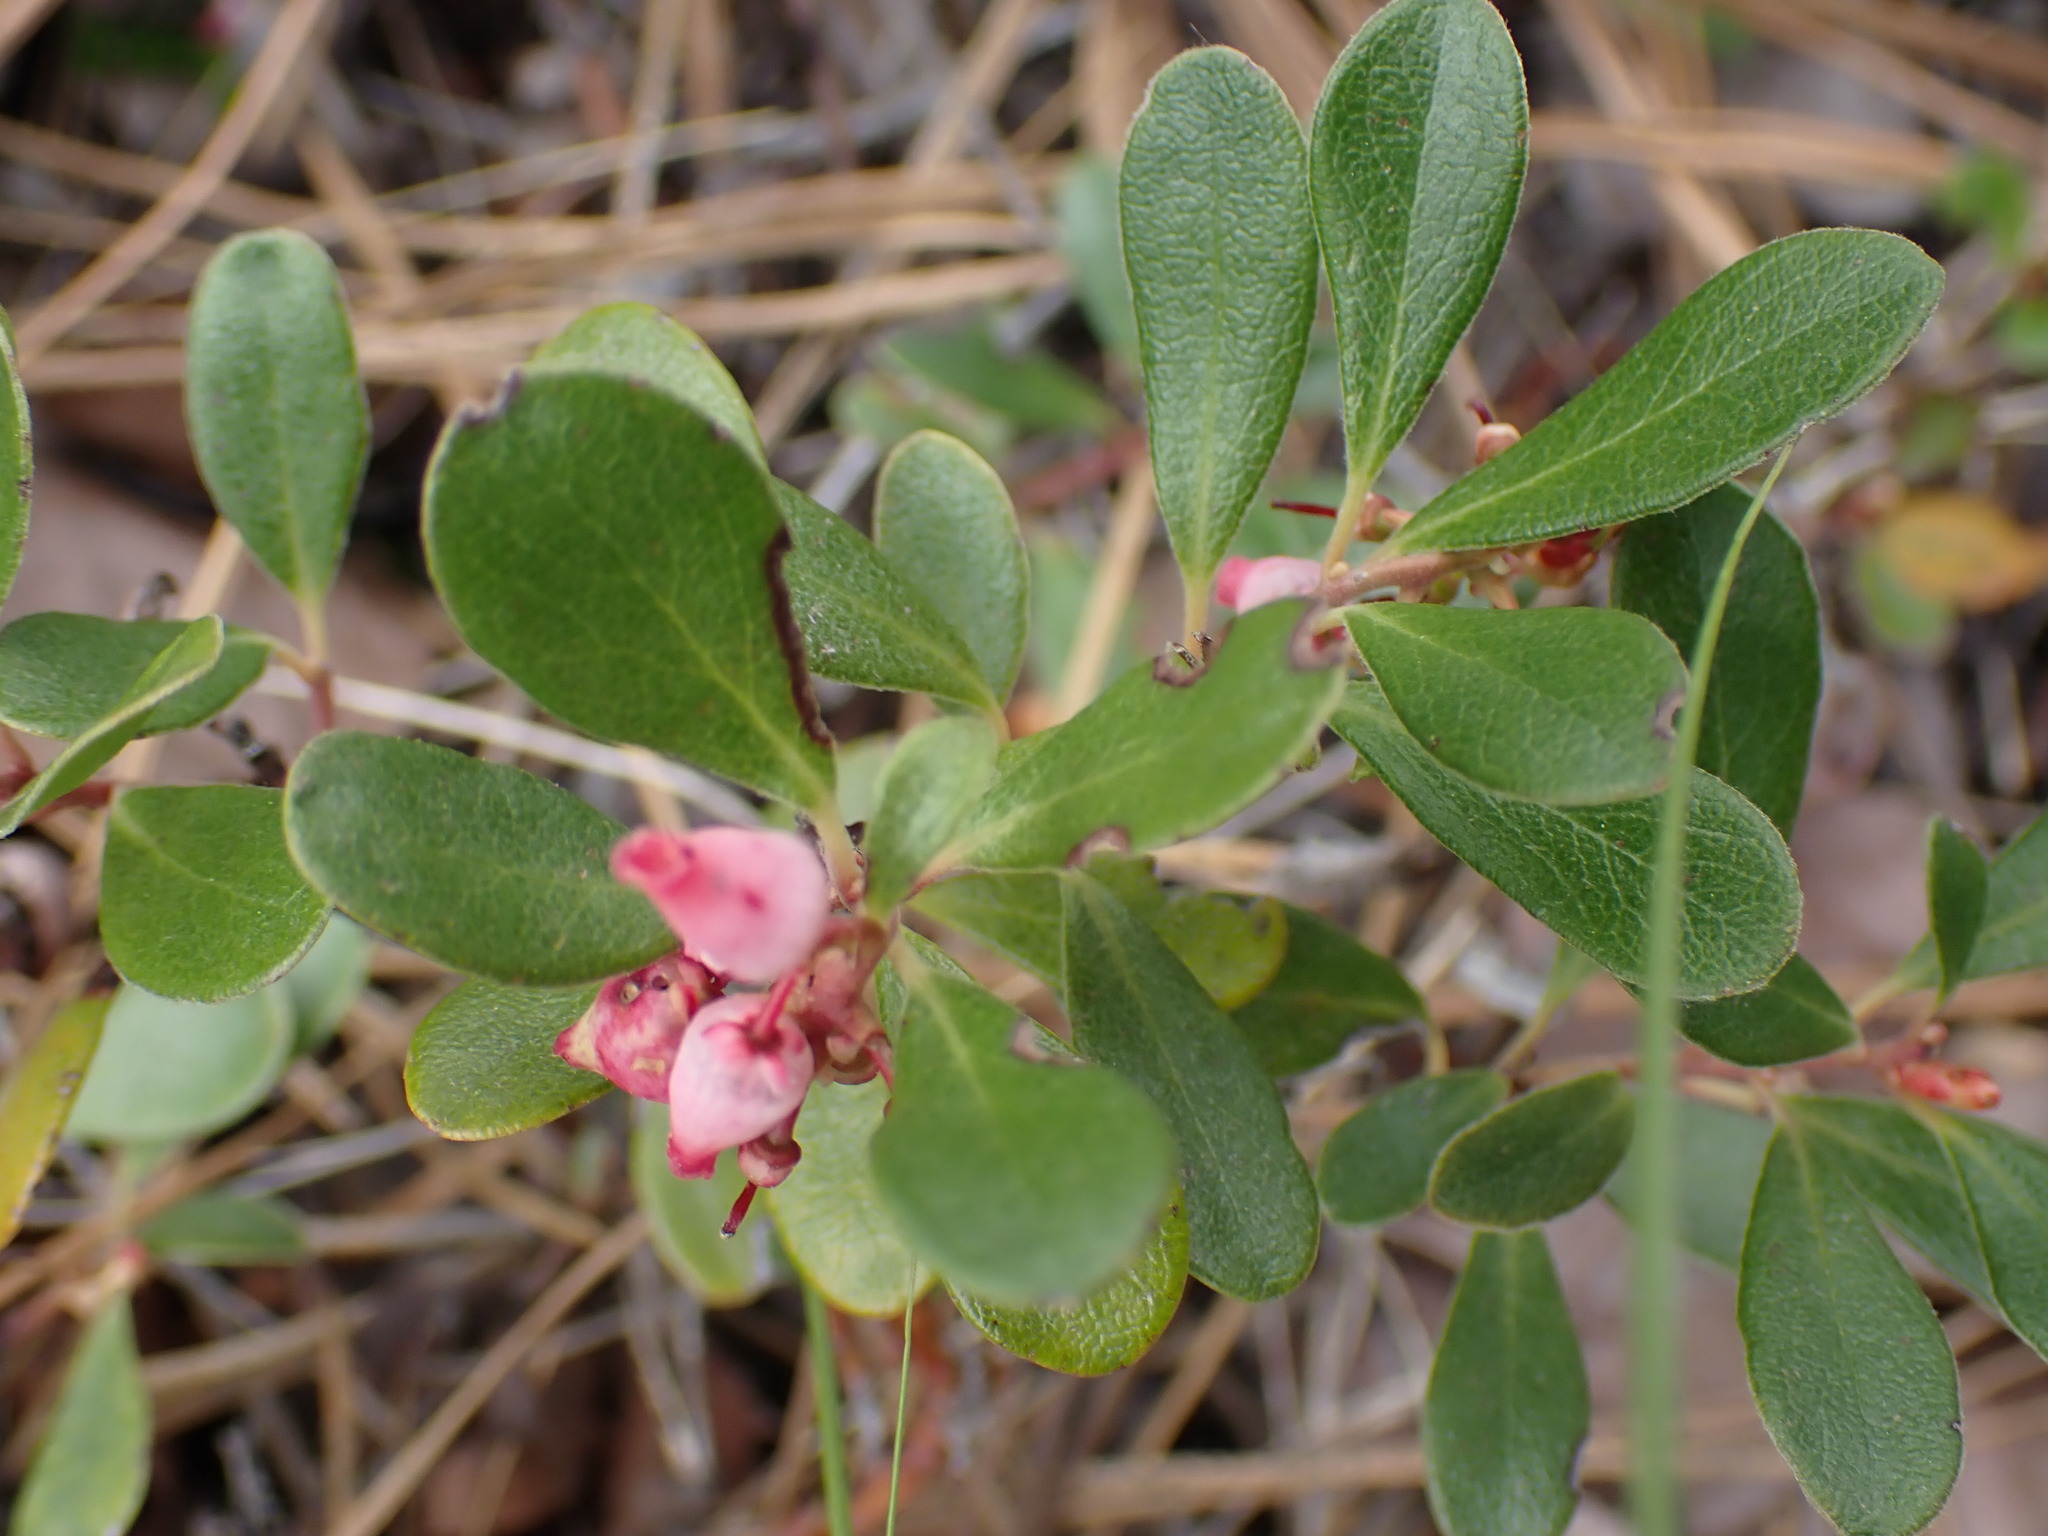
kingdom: Plantae
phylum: Tracheophyta
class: Magnoliopsida
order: Ericales
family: Ericaceae
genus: Arctostaphylos
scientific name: Arctostaphylos uva-ursi
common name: Bearberry
